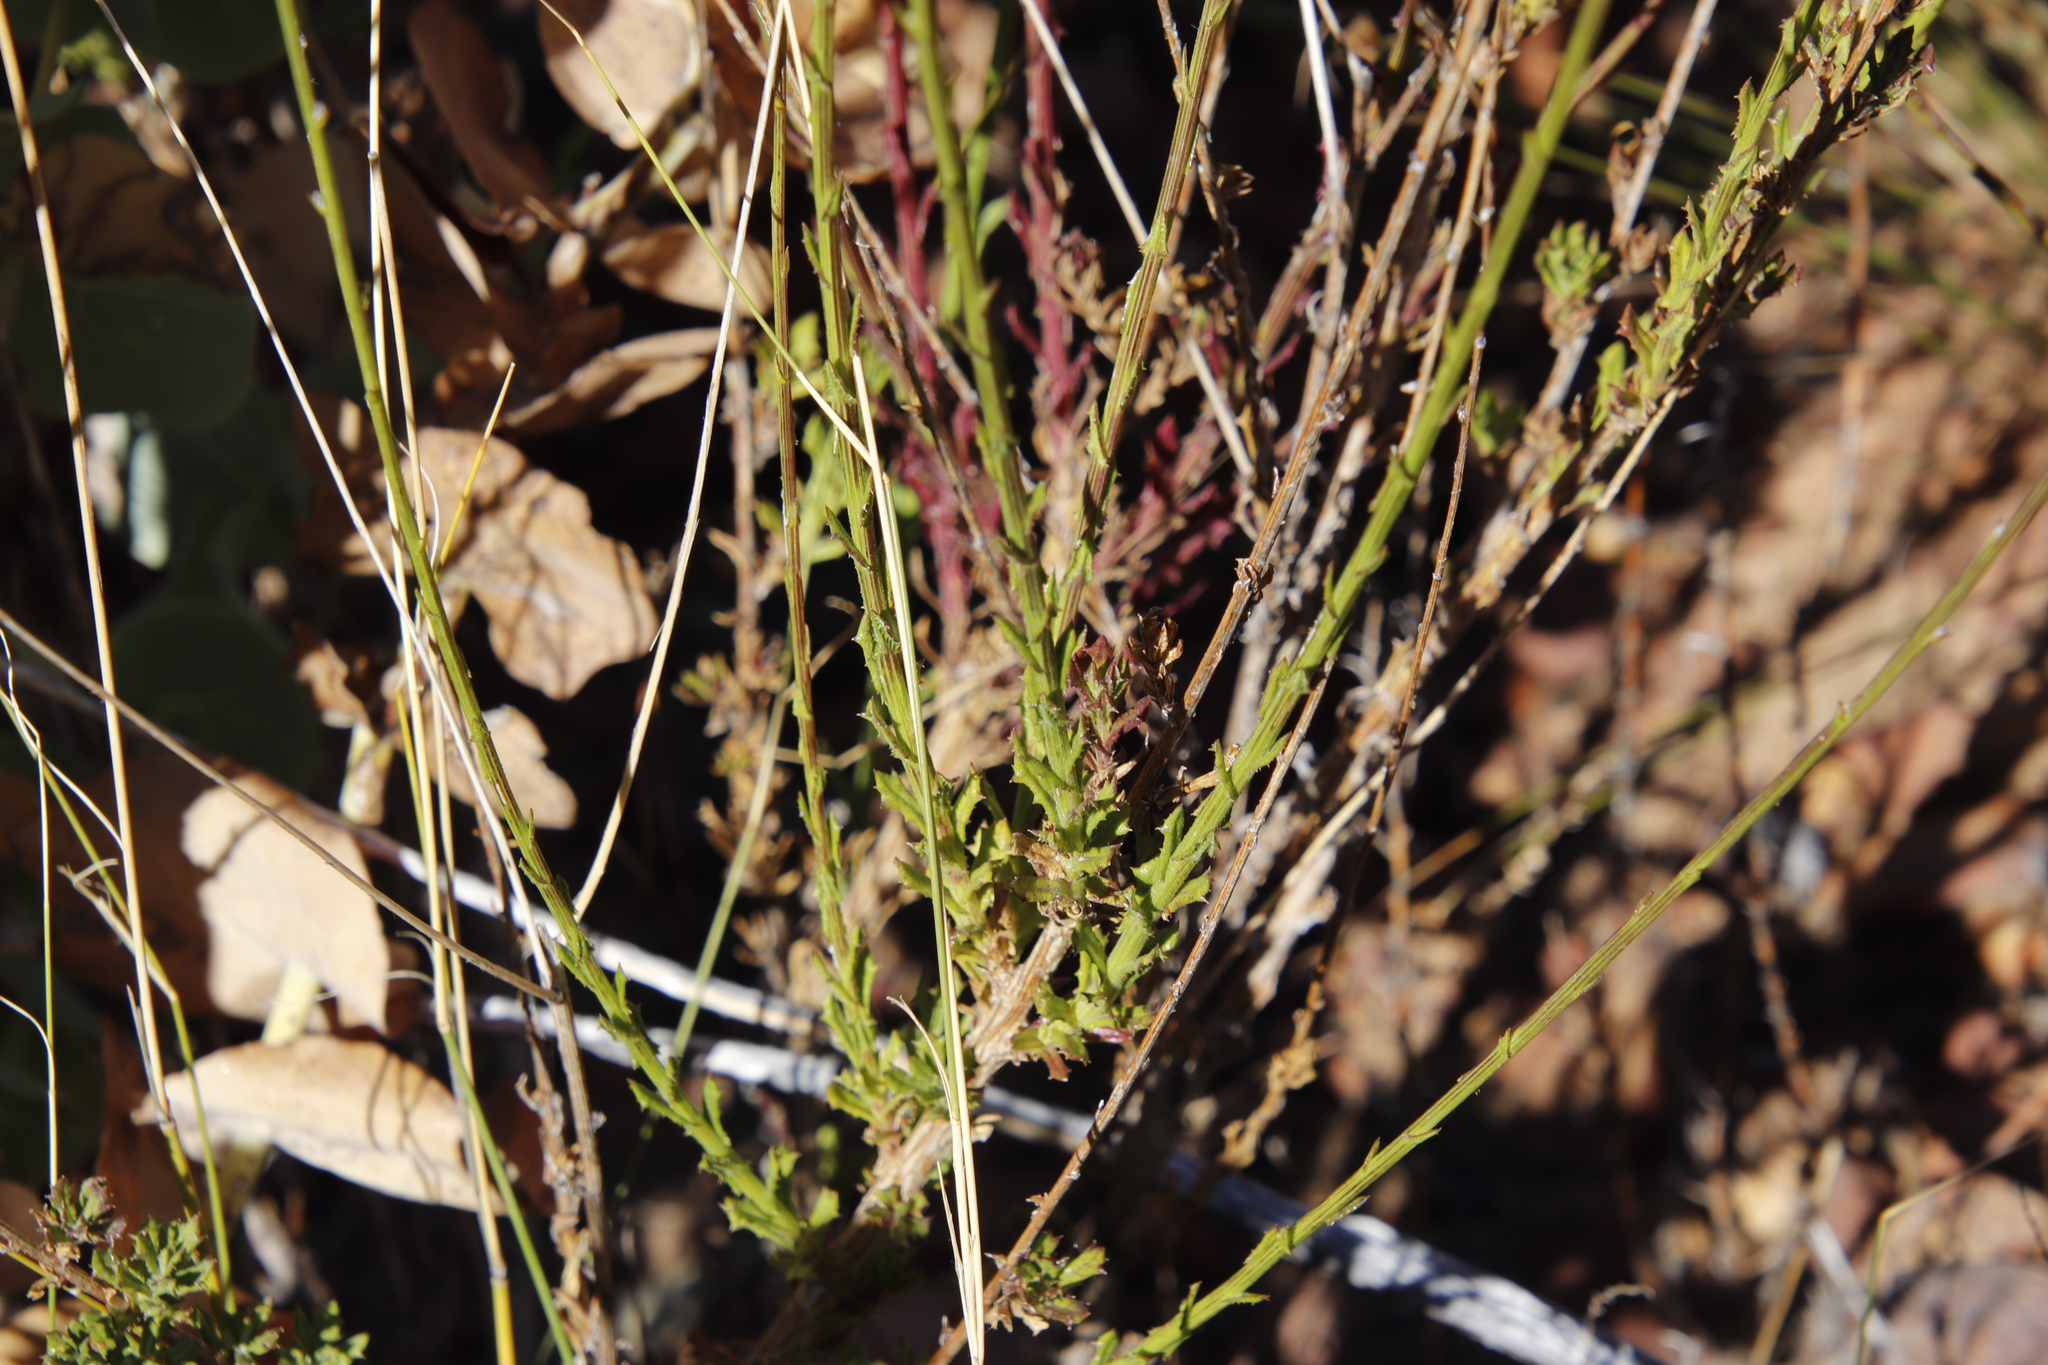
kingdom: Plantae
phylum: Tracheophyta
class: Magnoliopsida
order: Asterales
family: Asteraceae
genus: Senecio
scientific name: Senecio pubigerus
